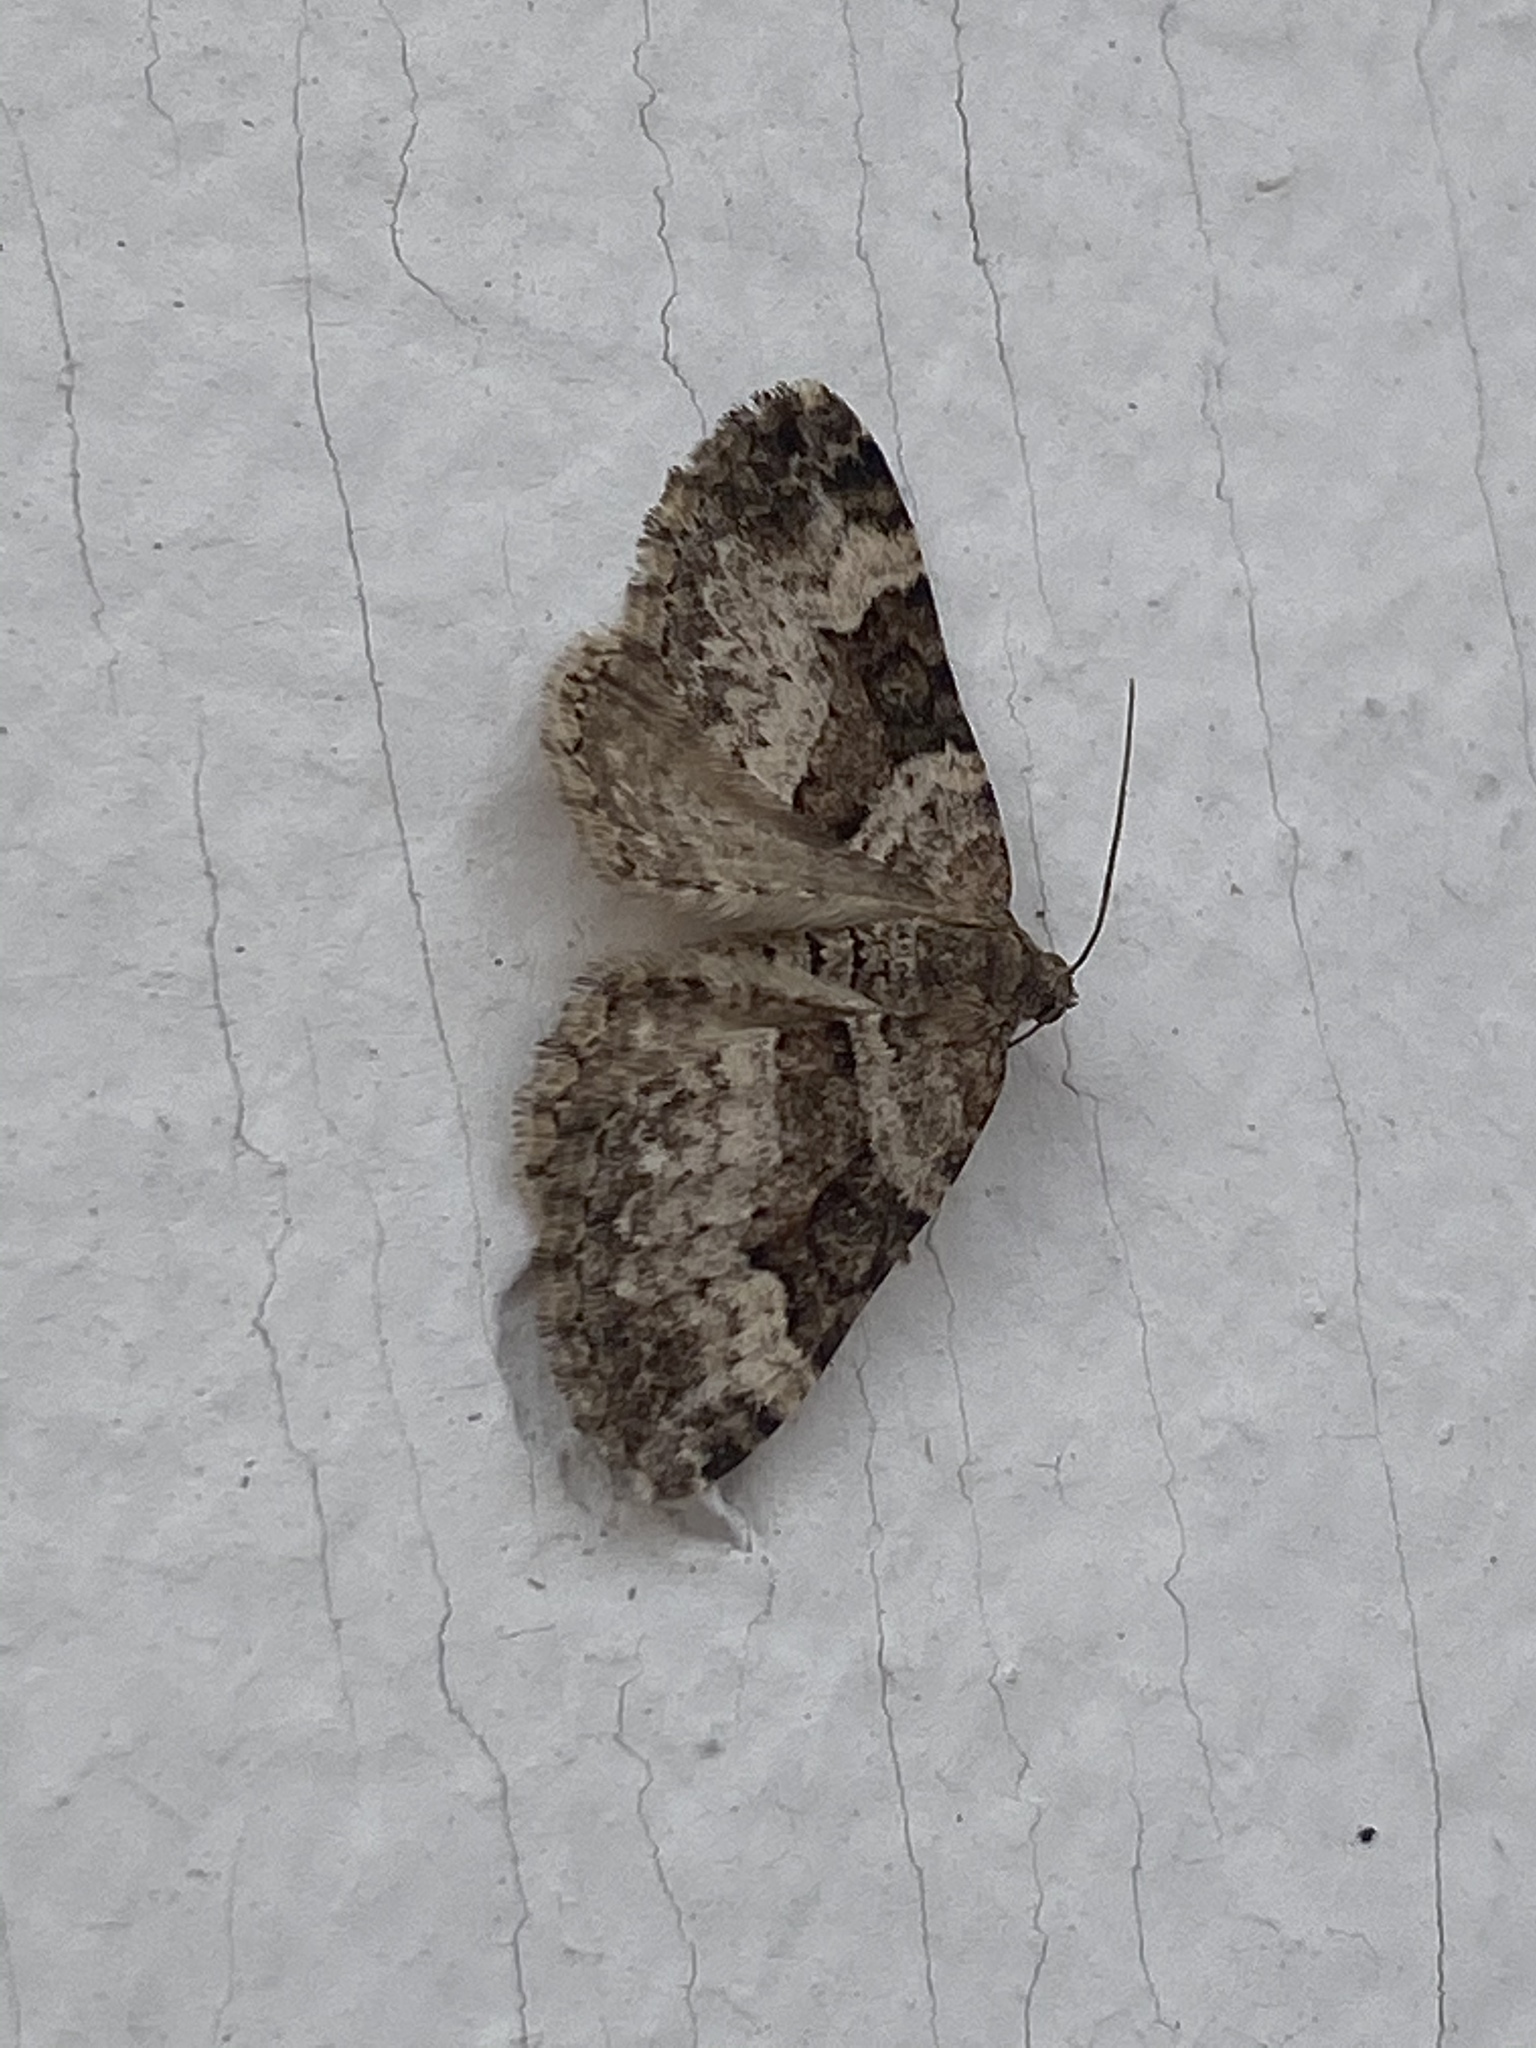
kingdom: Animalia
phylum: Arthropoda
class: Insecta
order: Lepidoptera
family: Geometridae
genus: Xanthorhoe
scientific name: Xanthorhoe lacustrata
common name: Toothed brown carpet
